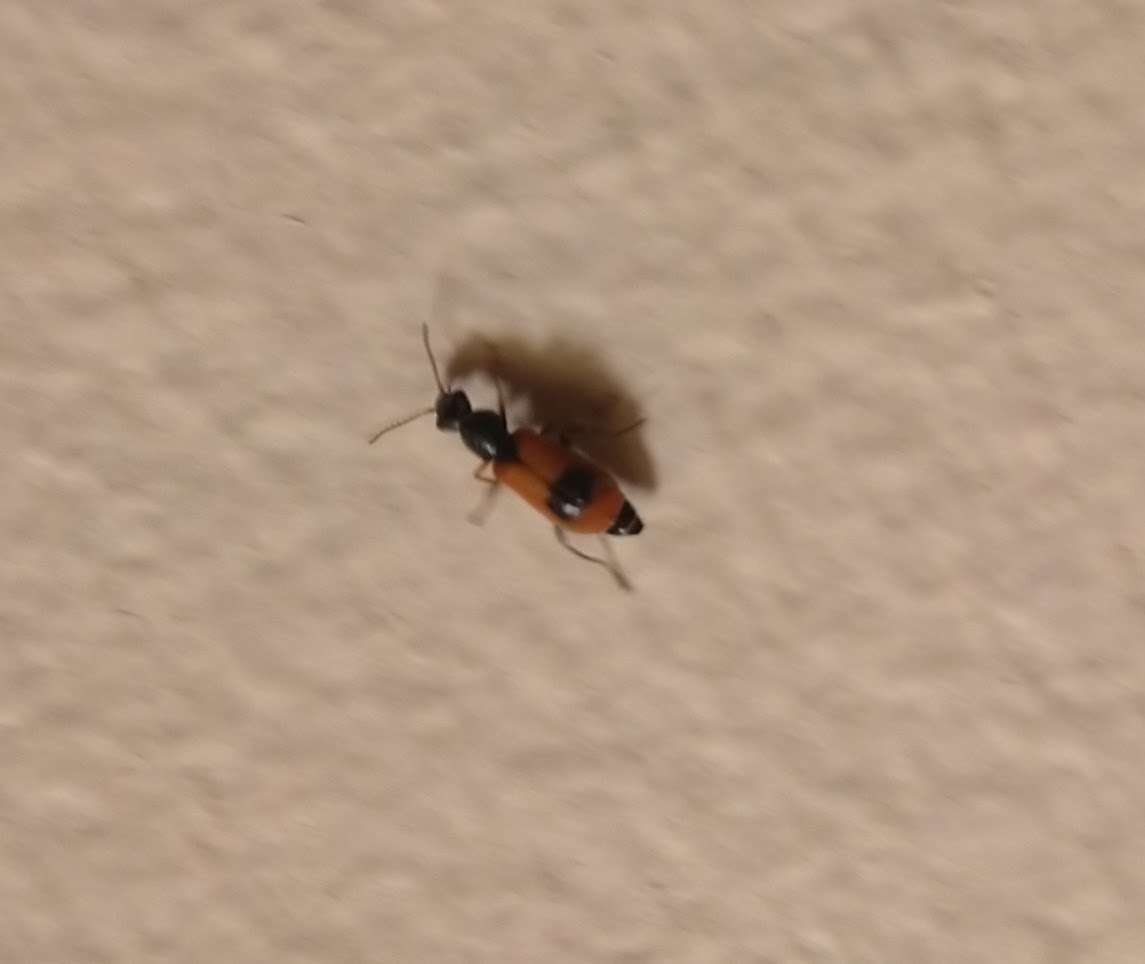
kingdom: Animalia
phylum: Arthropoda
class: Insecta
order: Coleoptera
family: Melyridae
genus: Anthocomus
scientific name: Anthocomus equestris
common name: Black-banded soft-winged flower beetle
